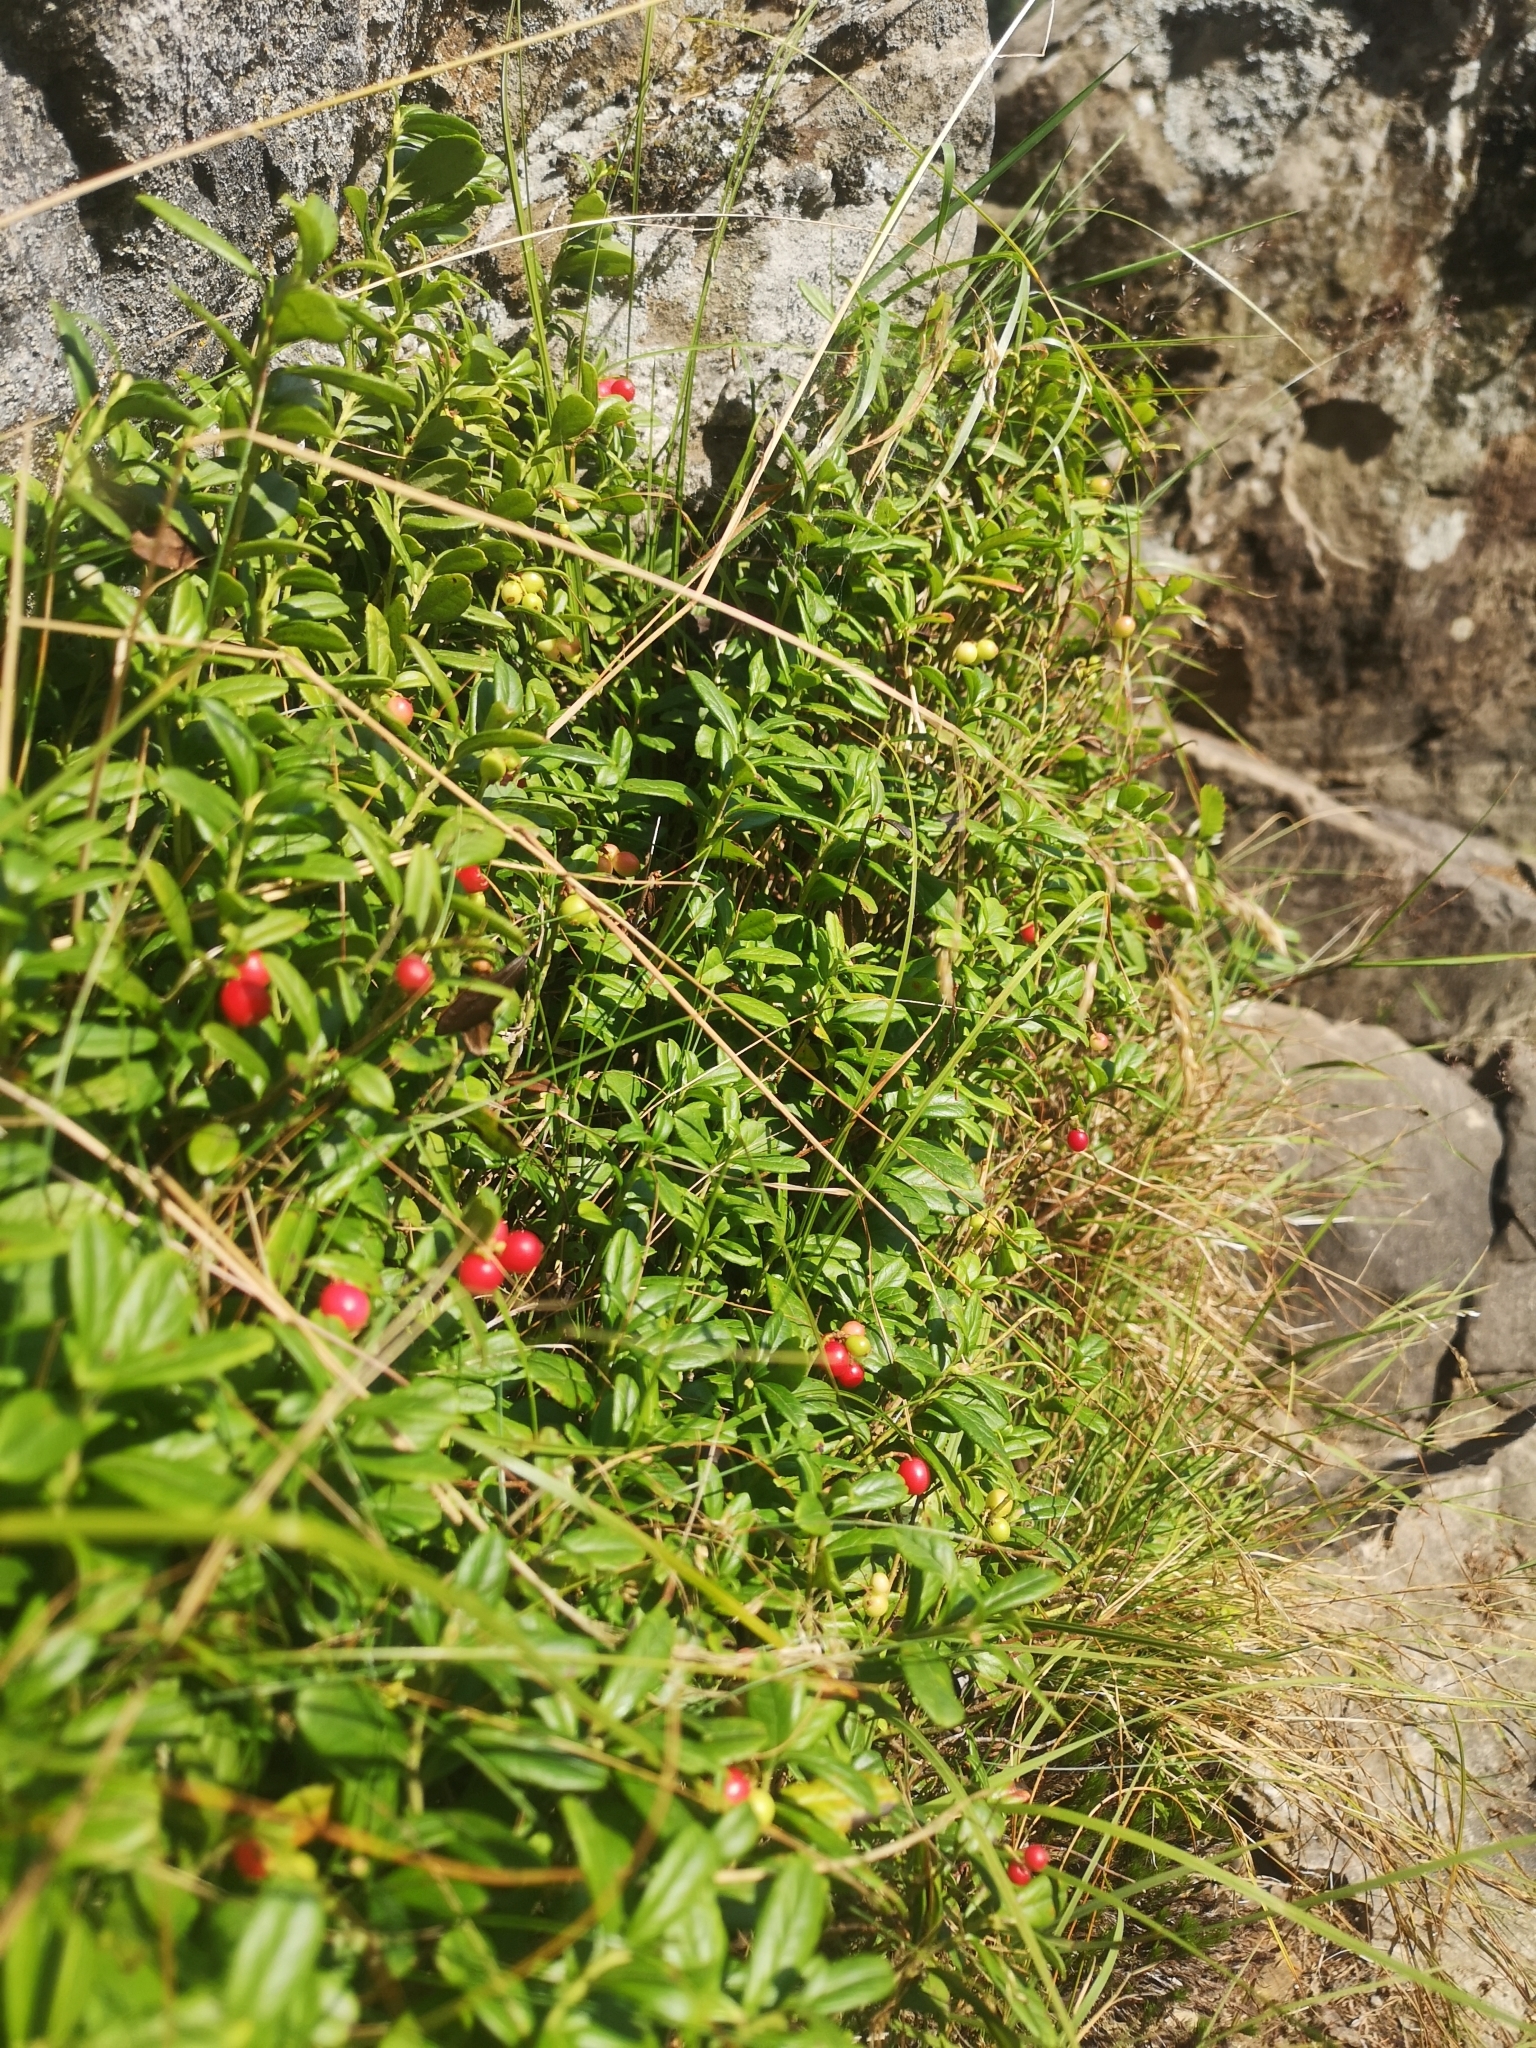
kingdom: Plantae
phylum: Tracheophyta
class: Magnoliopsida
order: Ericales
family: Ericaceae
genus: Vaccinium
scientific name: Vaccinium vitis-idaea
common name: Cowberry
